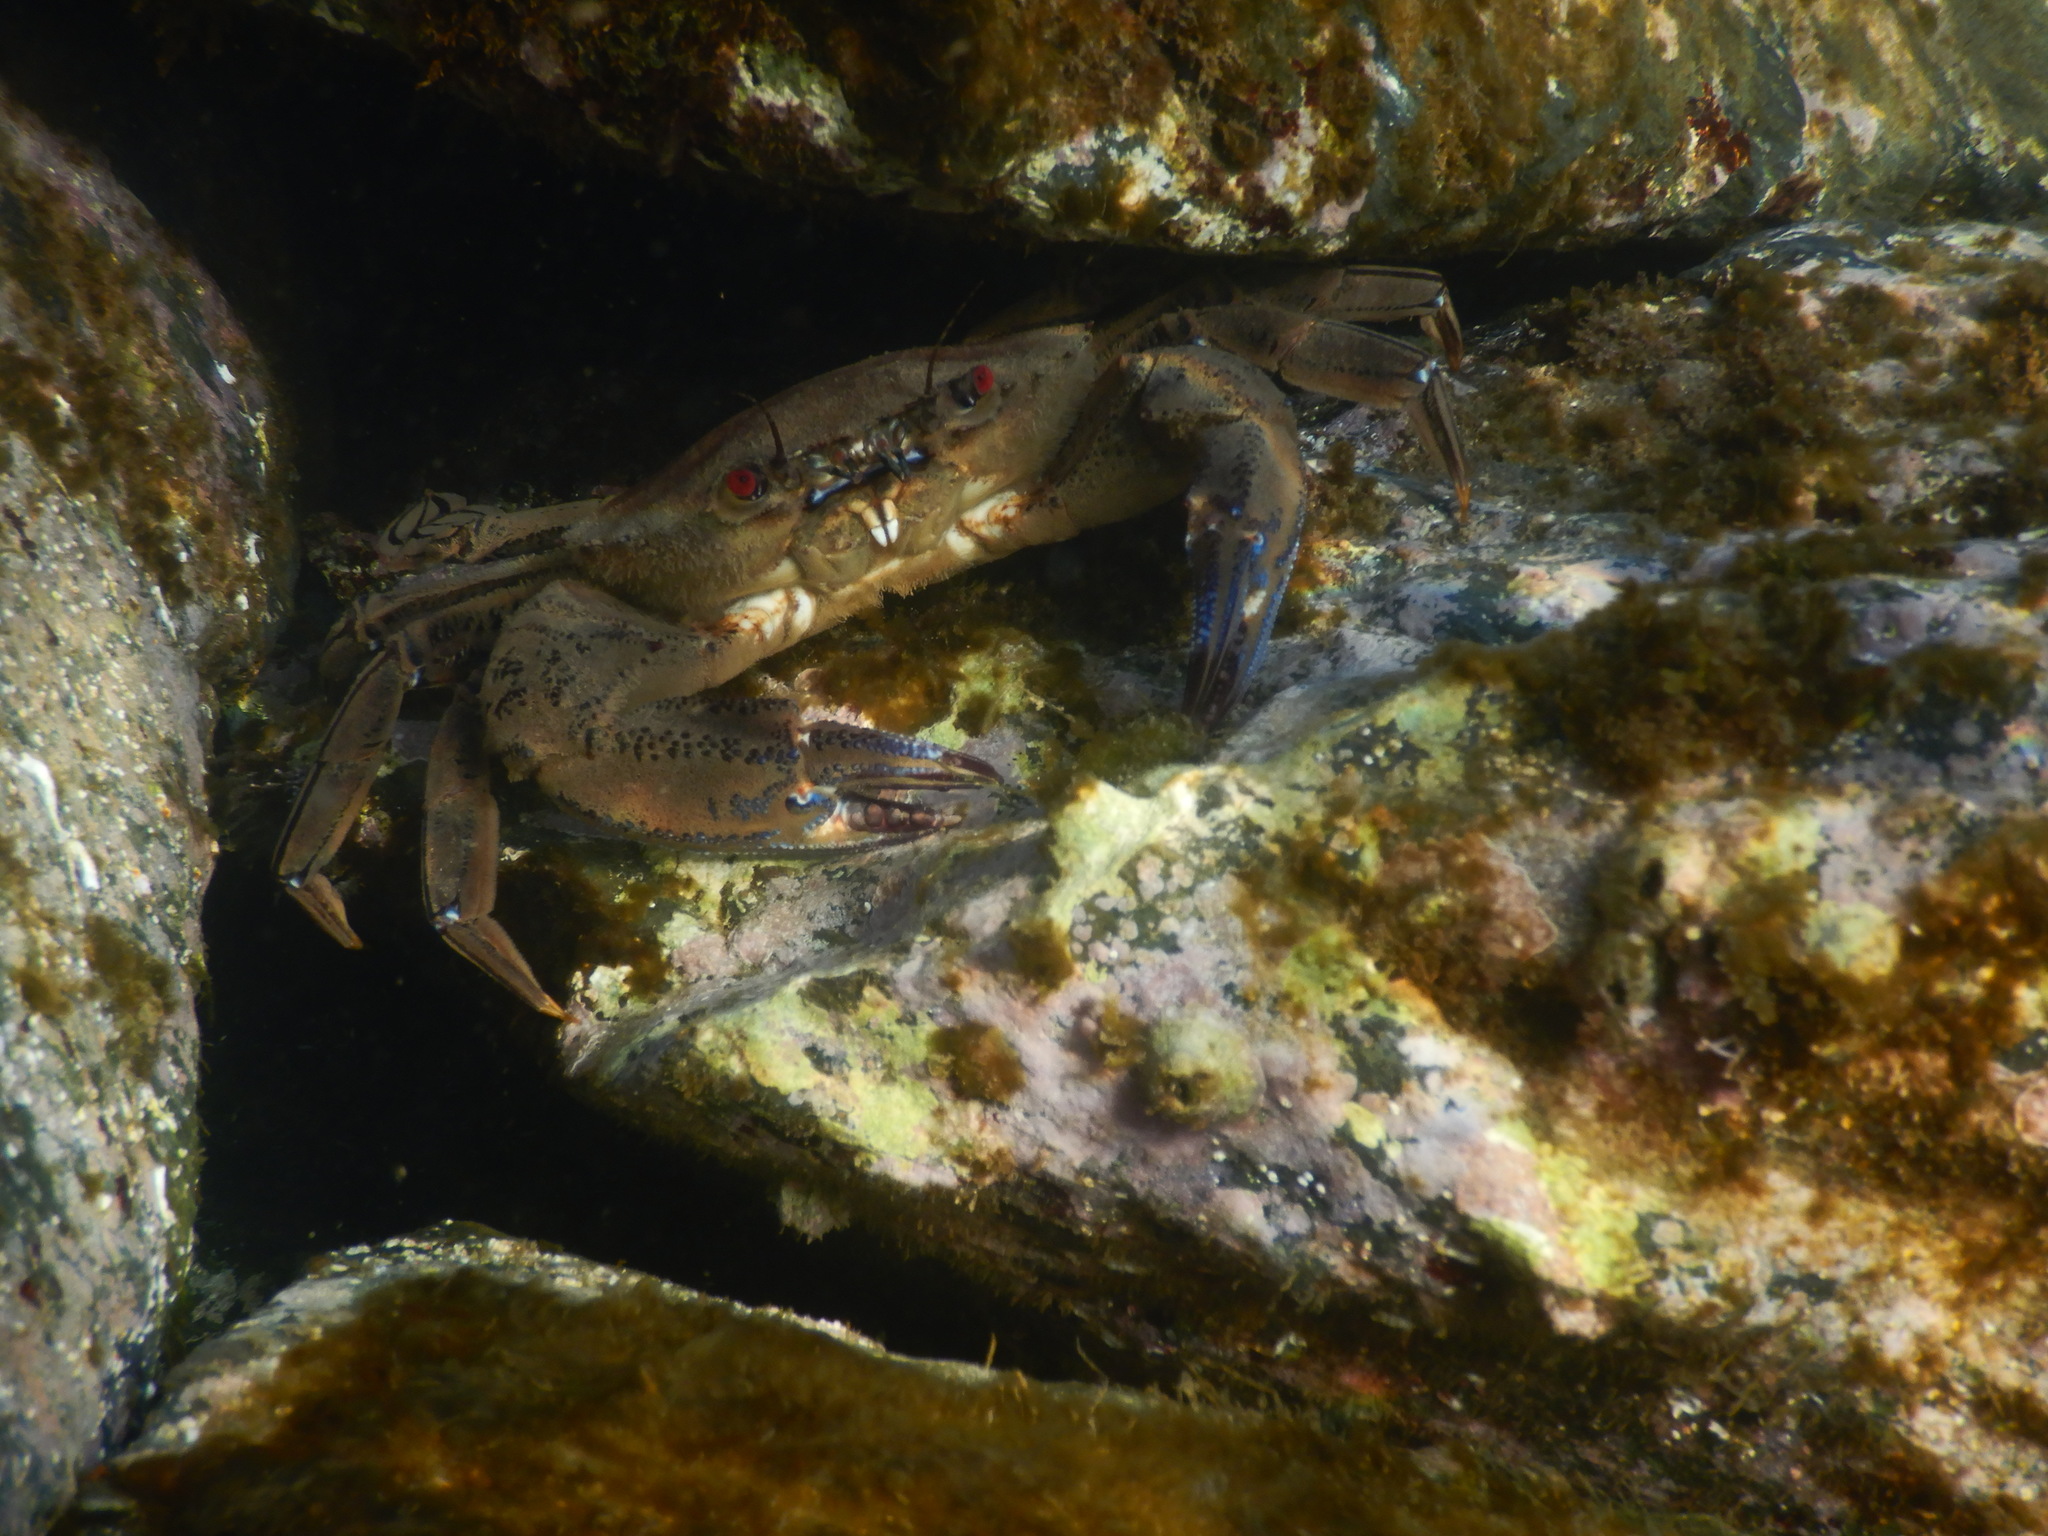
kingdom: Animalia
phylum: Arthropoda
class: Malacostraca
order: Decapoda
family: Polybiidae
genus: Necora
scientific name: Necora puber
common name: Velvet swimming crab
